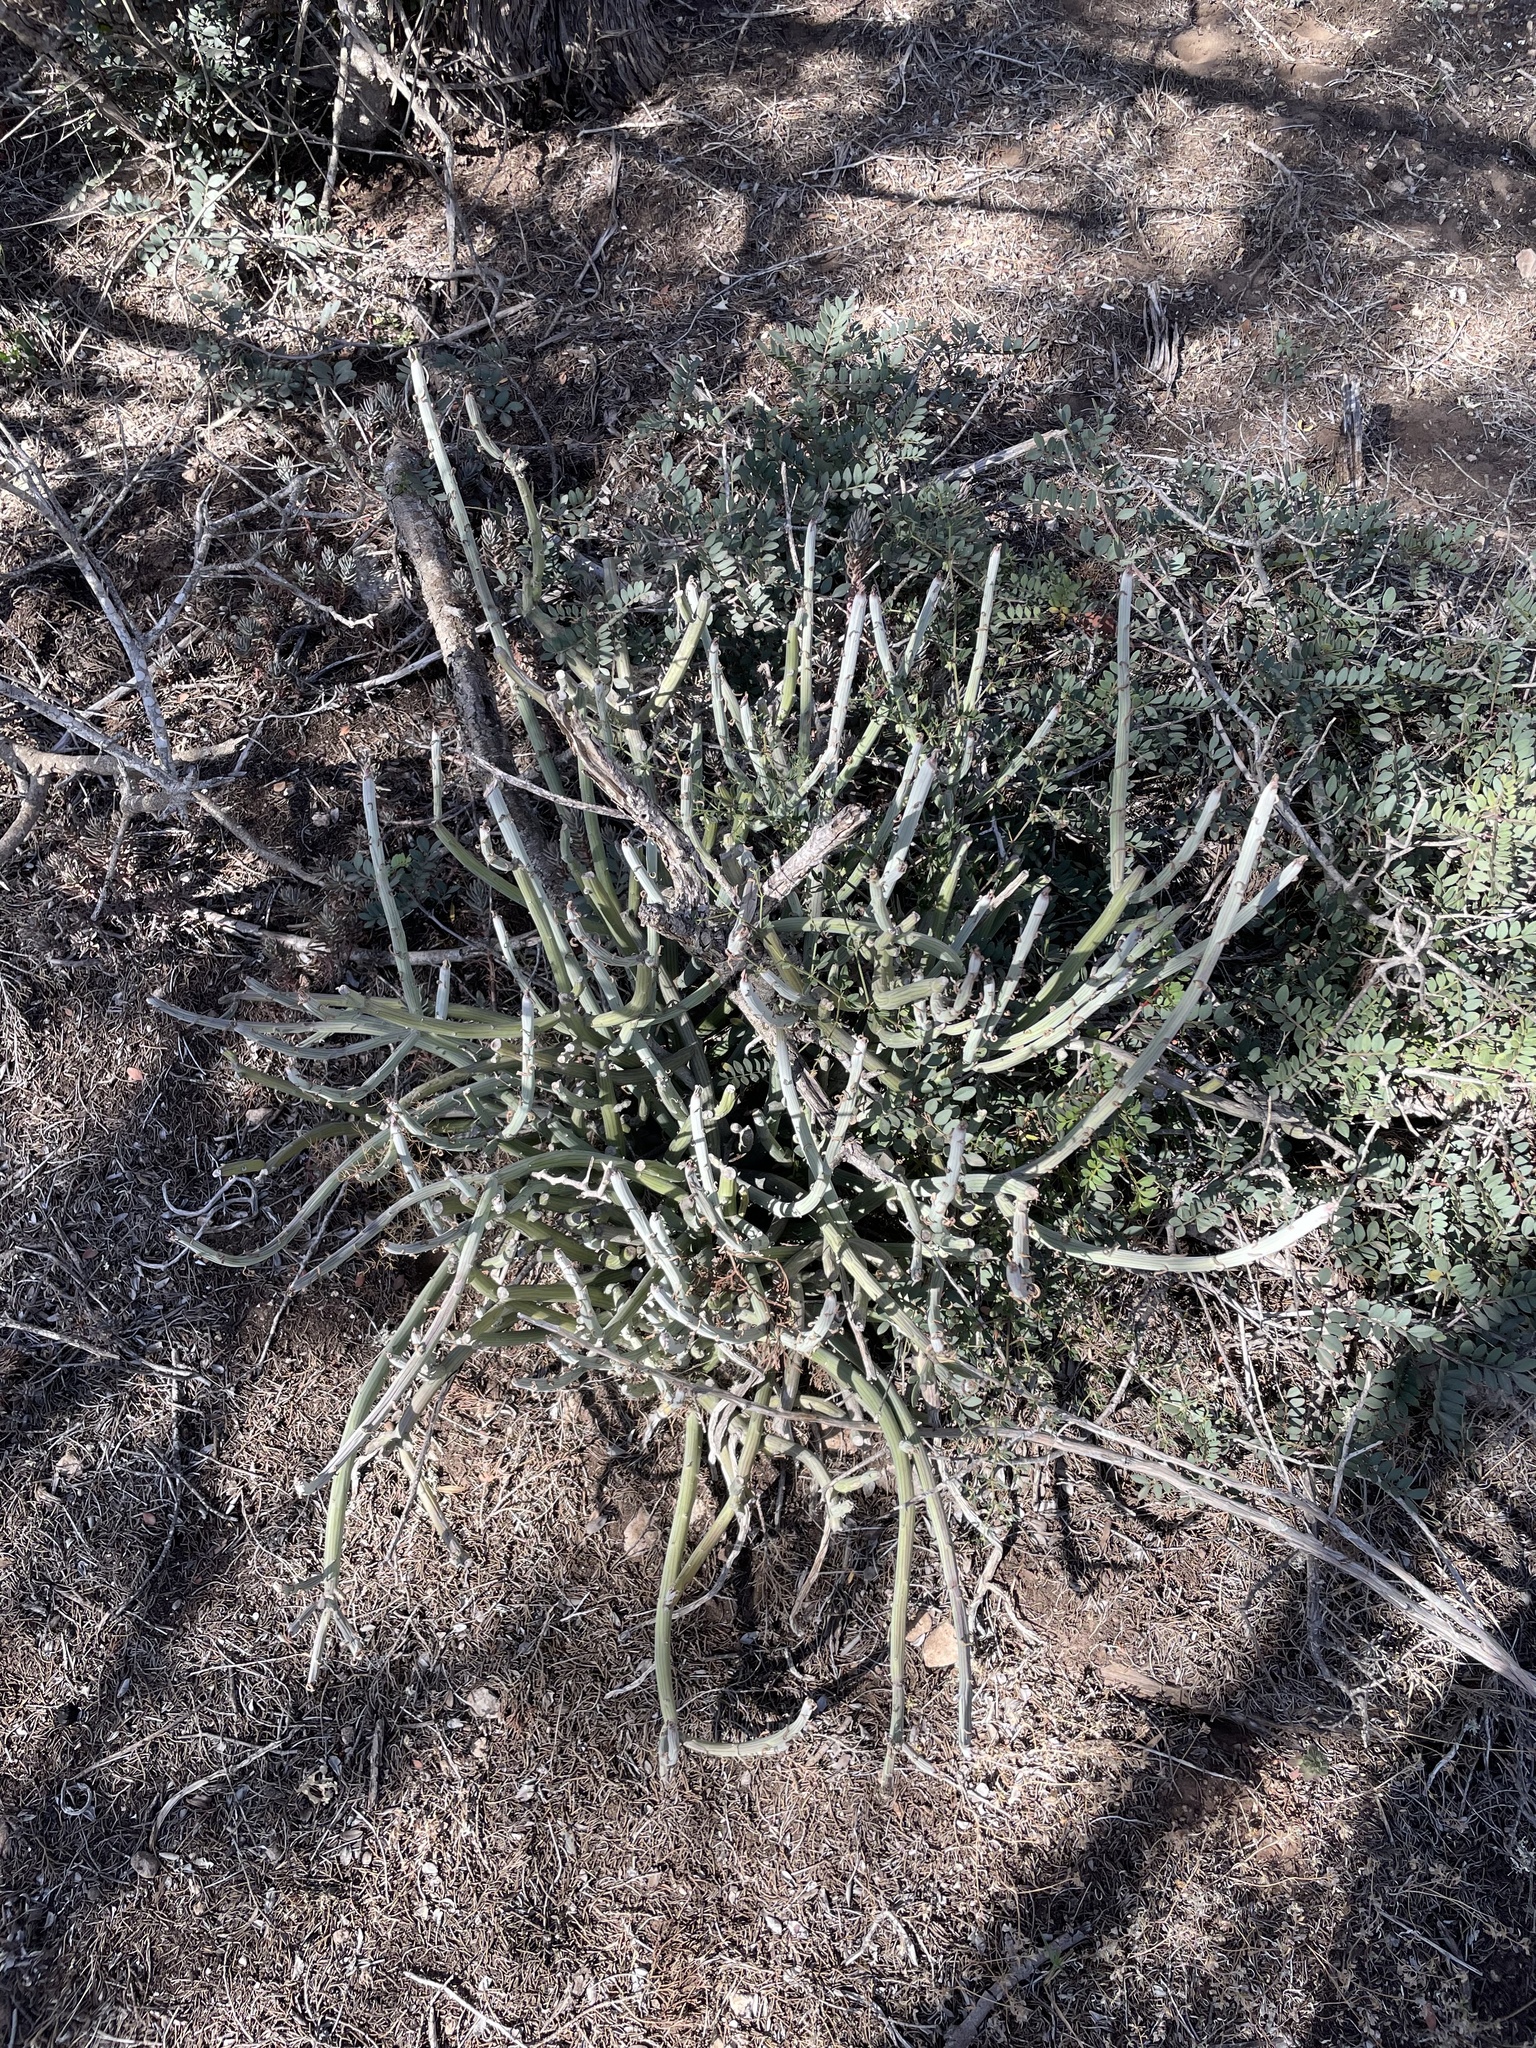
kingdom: Plantae
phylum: Tracheophyta
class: Magnoliopsida
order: Asterales
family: Asteraceae
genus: Kleinia
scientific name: Kleinia anteuphorbium
